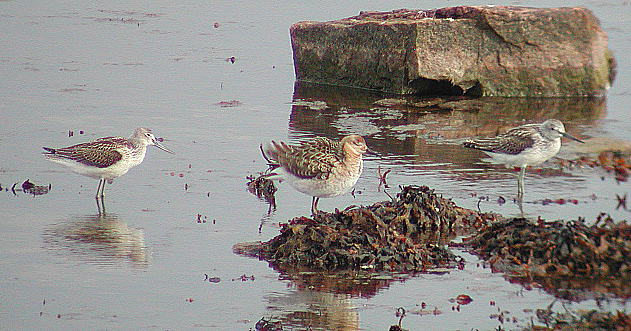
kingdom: Animalia
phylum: Chordata
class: Aves
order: Charadriiformes
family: Scolopacidae
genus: Calidris
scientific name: Calidris pugnax
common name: Ruff
